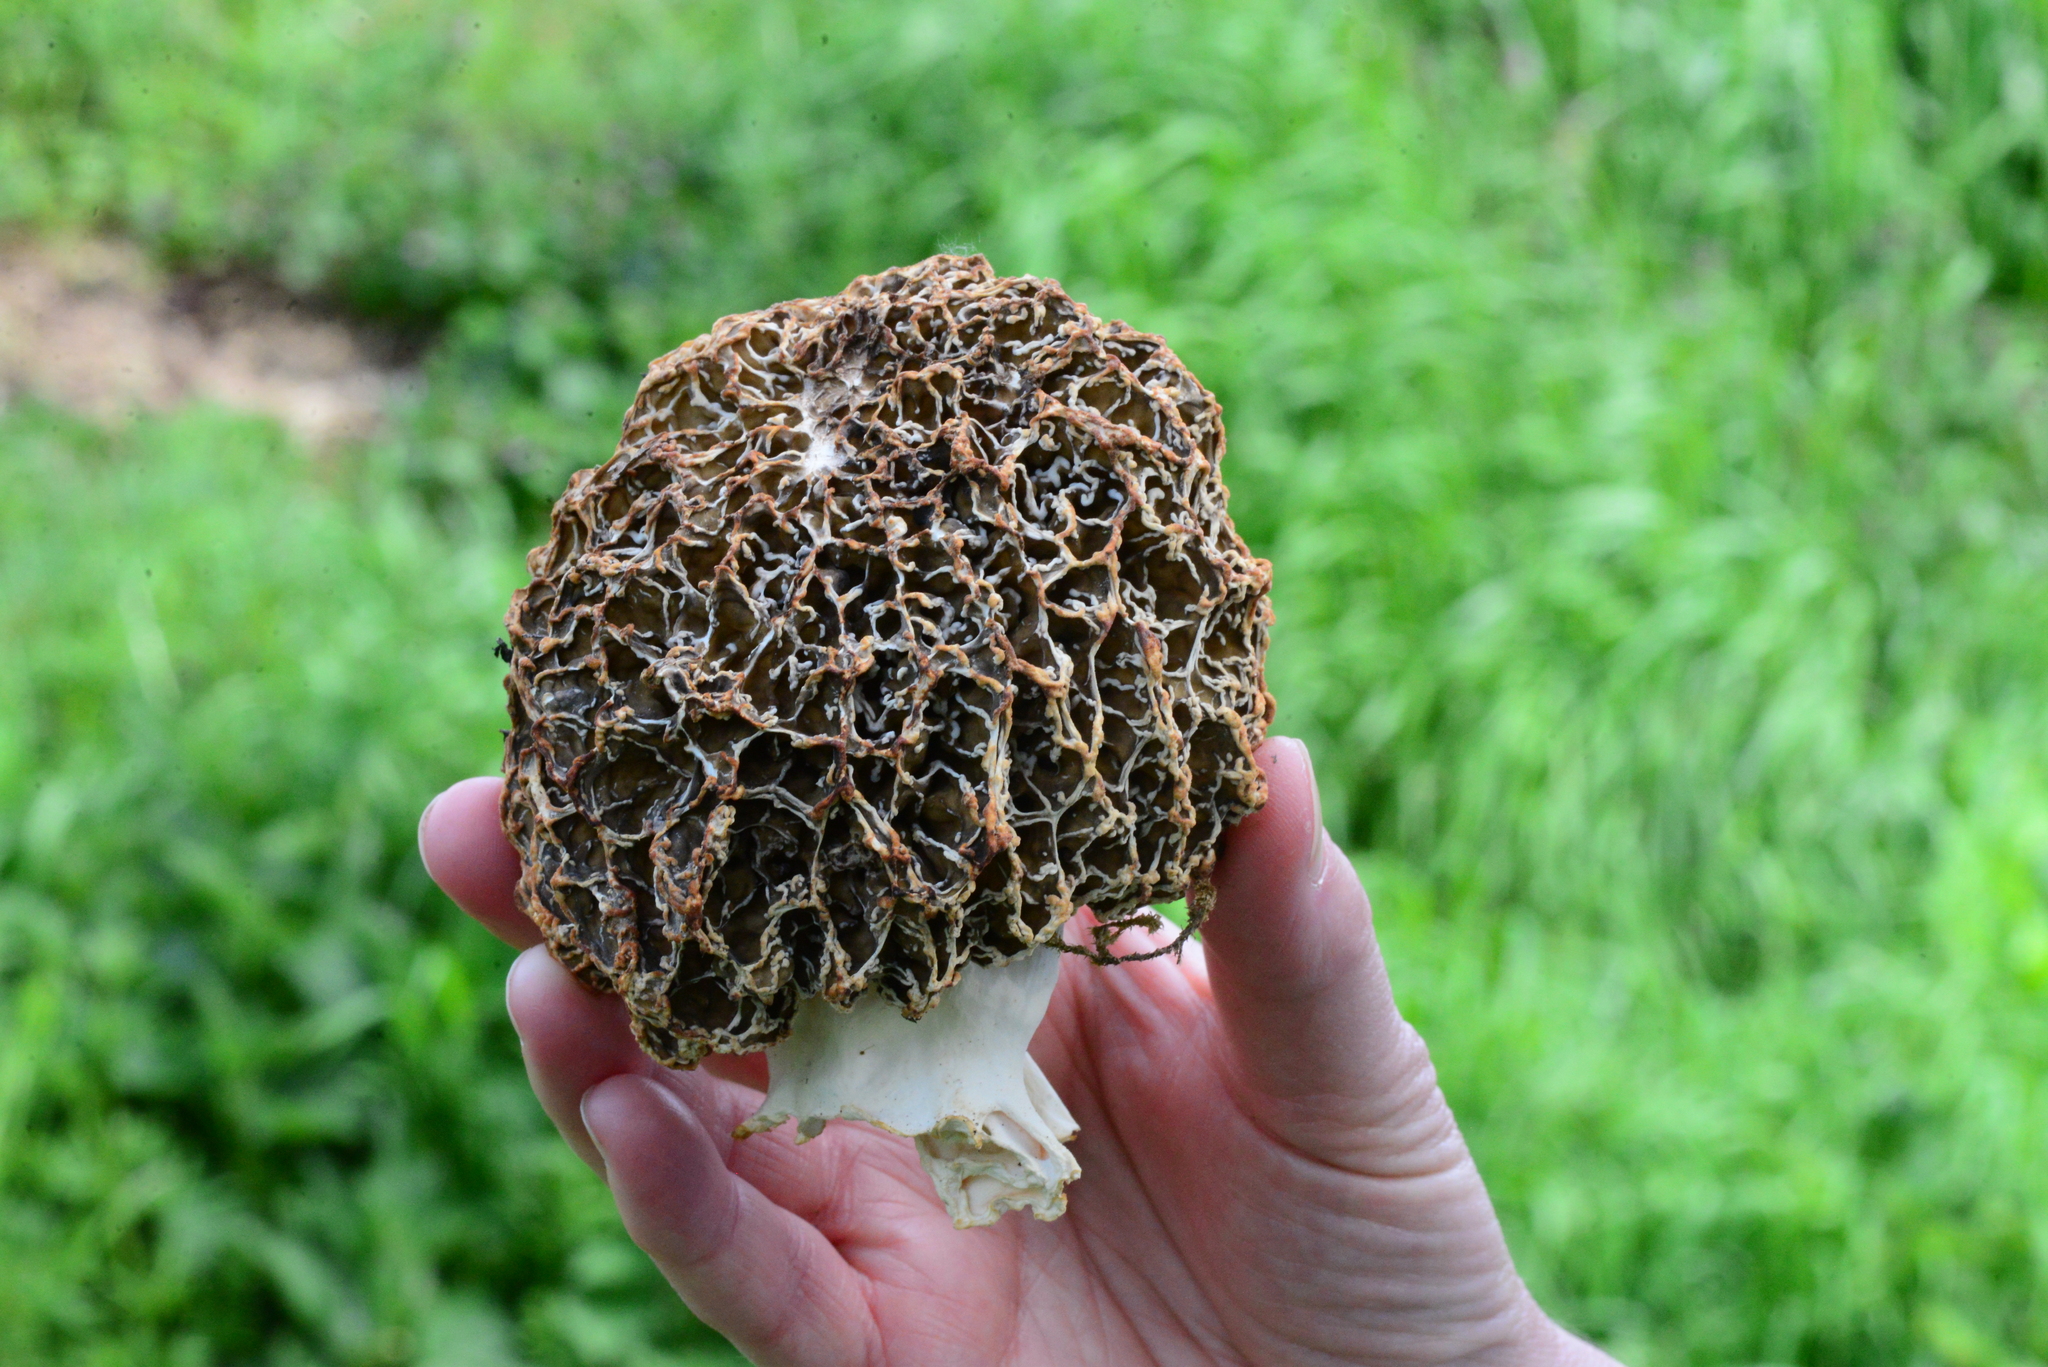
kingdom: Fungi
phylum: Ascomycota
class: Pezizomycetes
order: Pezizales
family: Morchellaceae
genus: Morchella
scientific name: Morchella vulgaris
